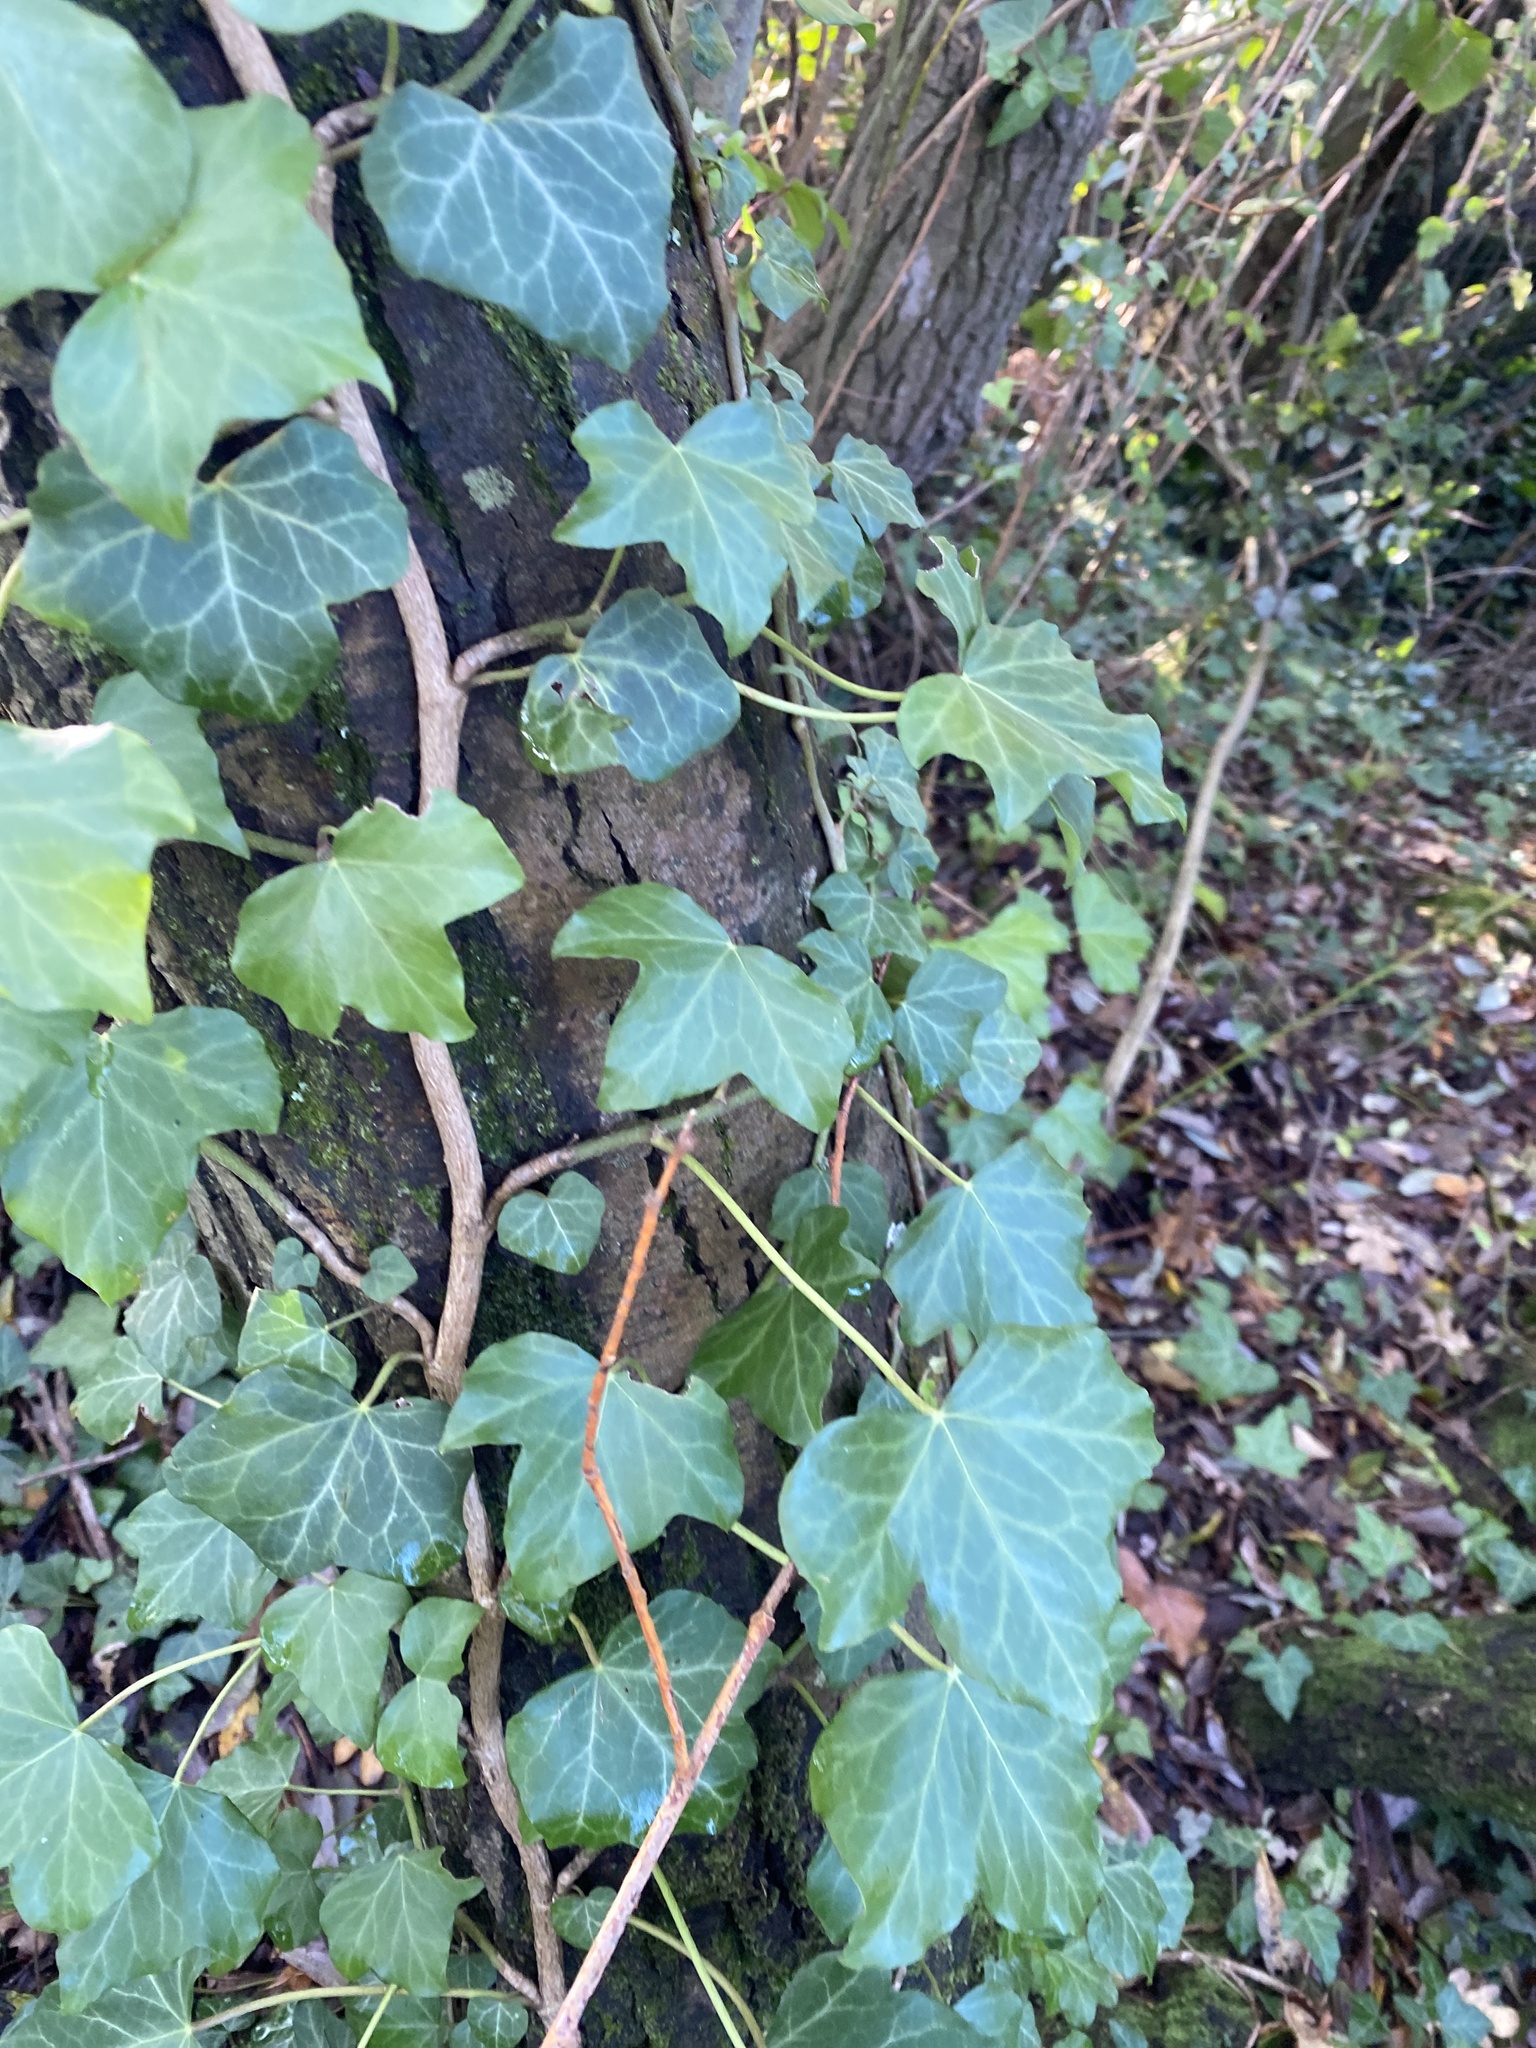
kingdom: Plantae
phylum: Tracheophyta
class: Magnoliopsida
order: Apiales
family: Araliaceae
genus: Hedera
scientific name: Hedera helix
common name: Ivy
